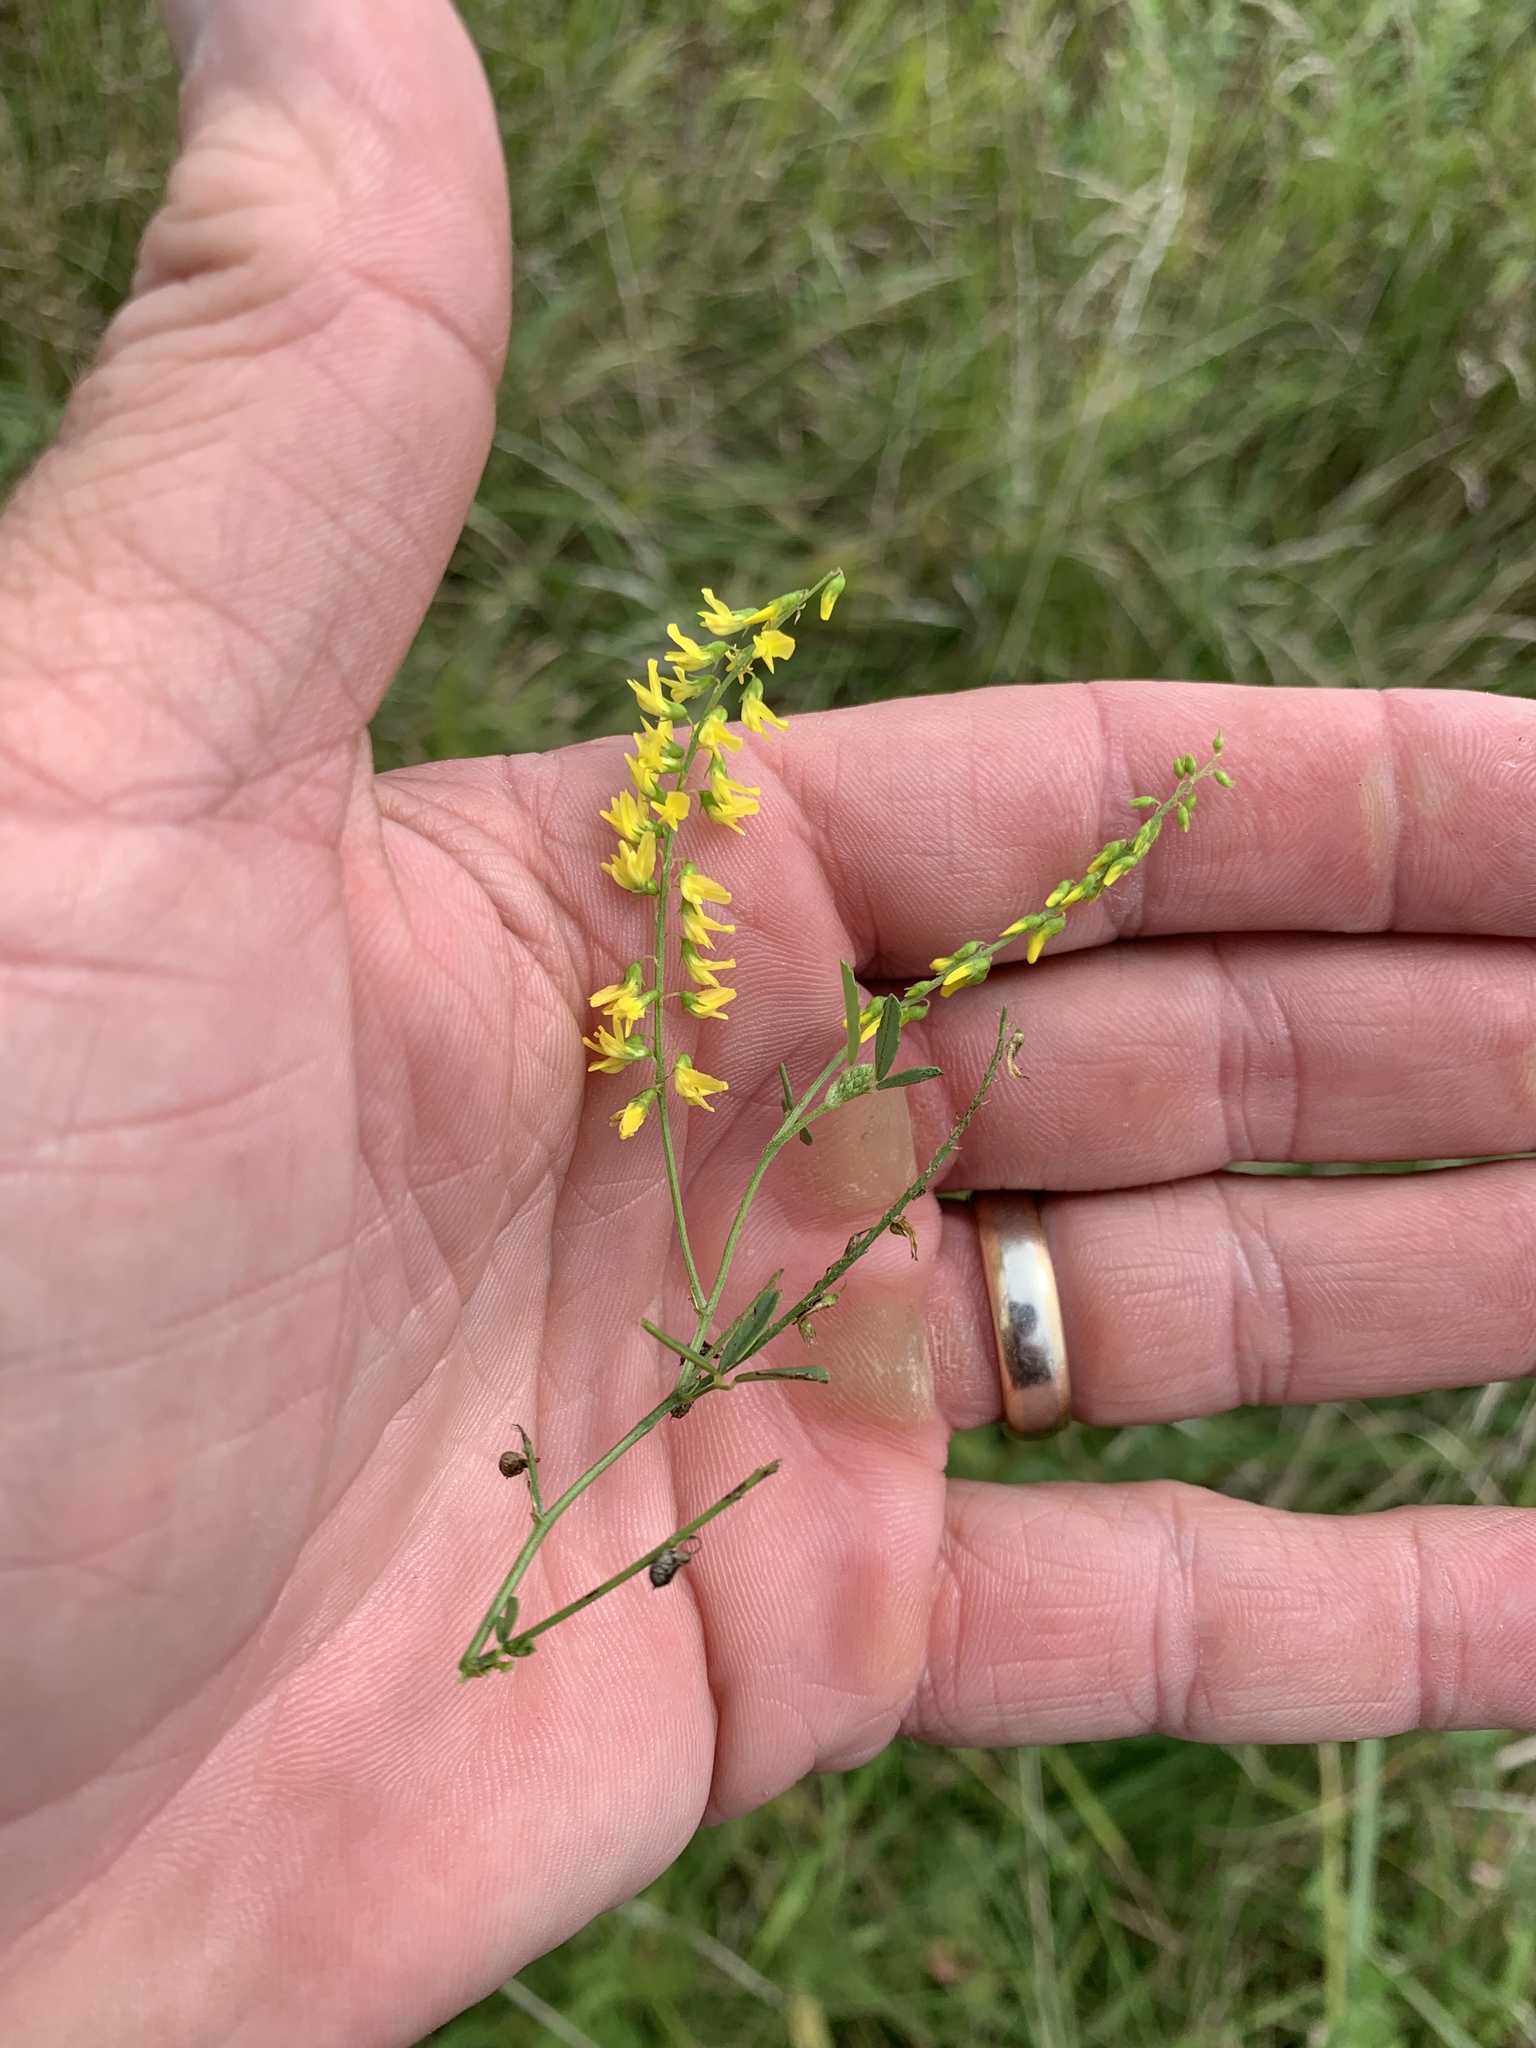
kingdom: Plantae
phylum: Tracheophyta
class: Magnoliopsida
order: Fabales
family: Fabaceae
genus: Melilotus
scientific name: Melilotus officinalis
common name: Sweetclover
